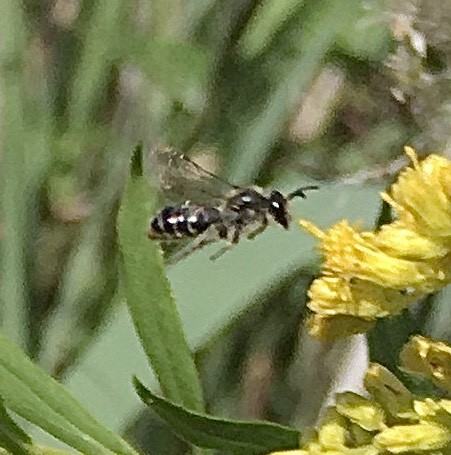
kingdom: Animalia
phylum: Arthropoda
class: Insecta
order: Hymenoptera
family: Andrenidae
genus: Andrena
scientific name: Andrena
